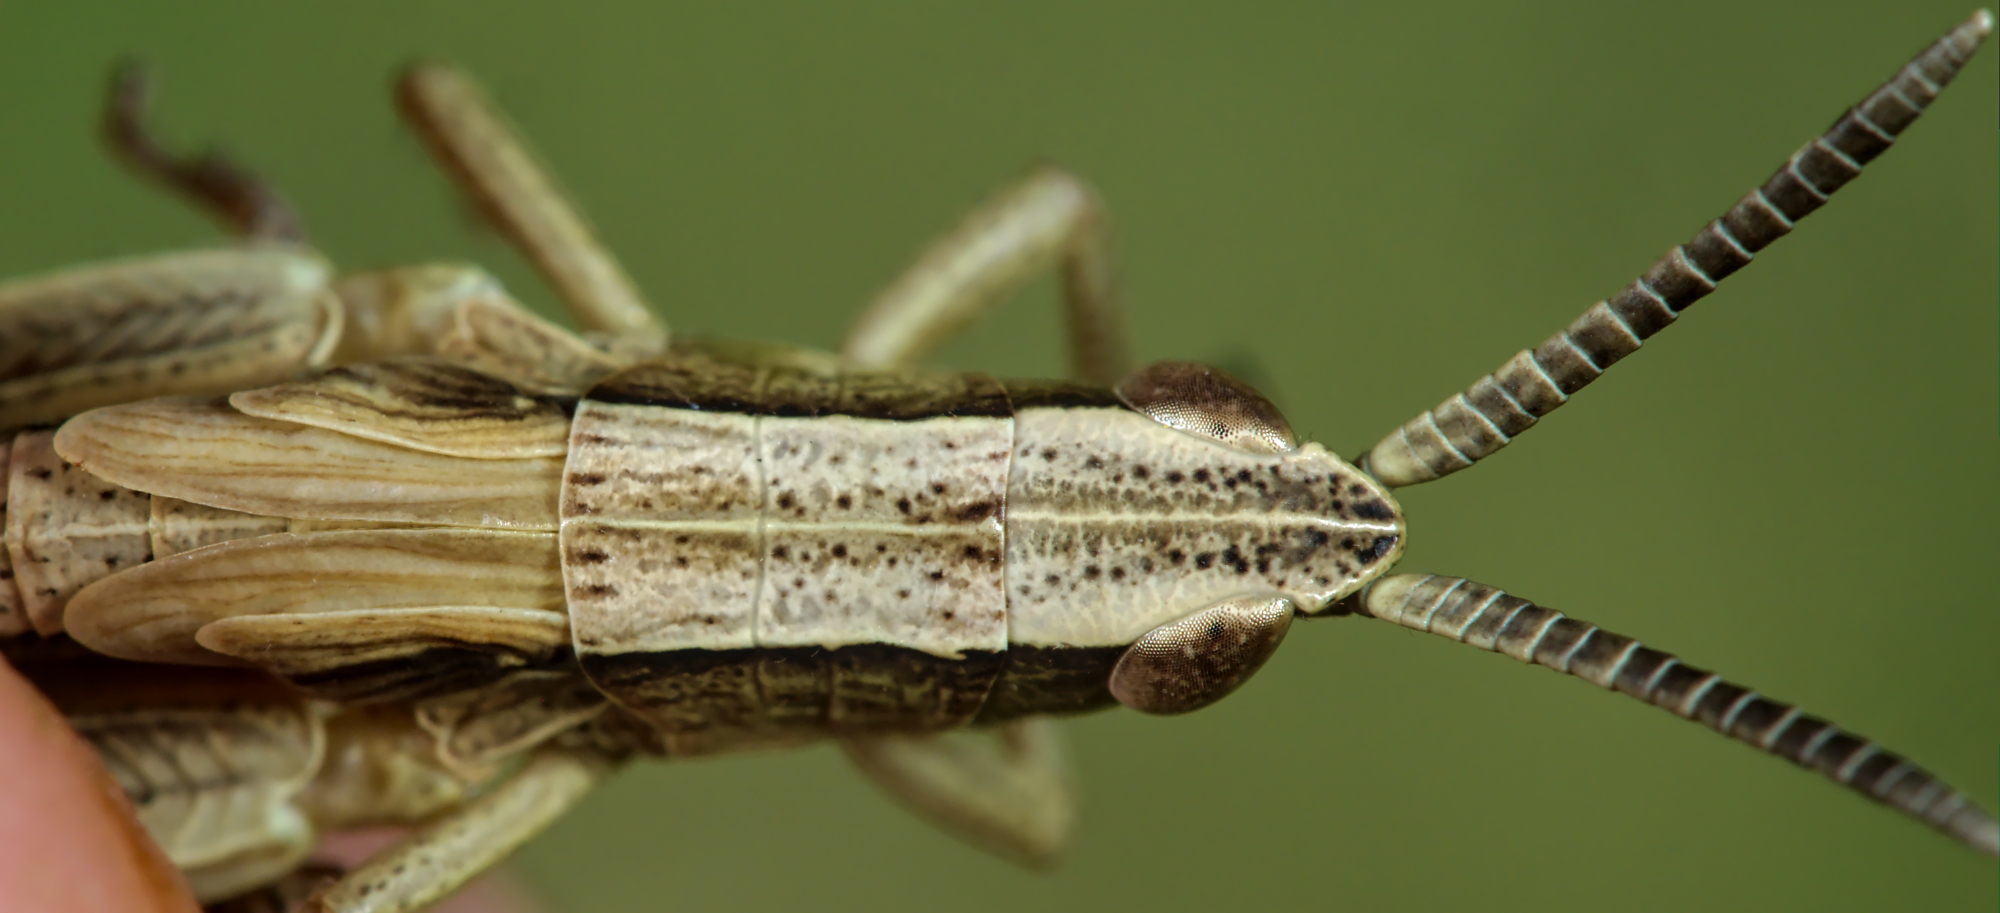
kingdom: Animalia
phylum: Arthropoda
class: Insecta
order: Orthoptera
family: Acrididae
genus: Chrysochraon
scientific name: Chrysochraon dispar
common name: Large gold grasshopper
